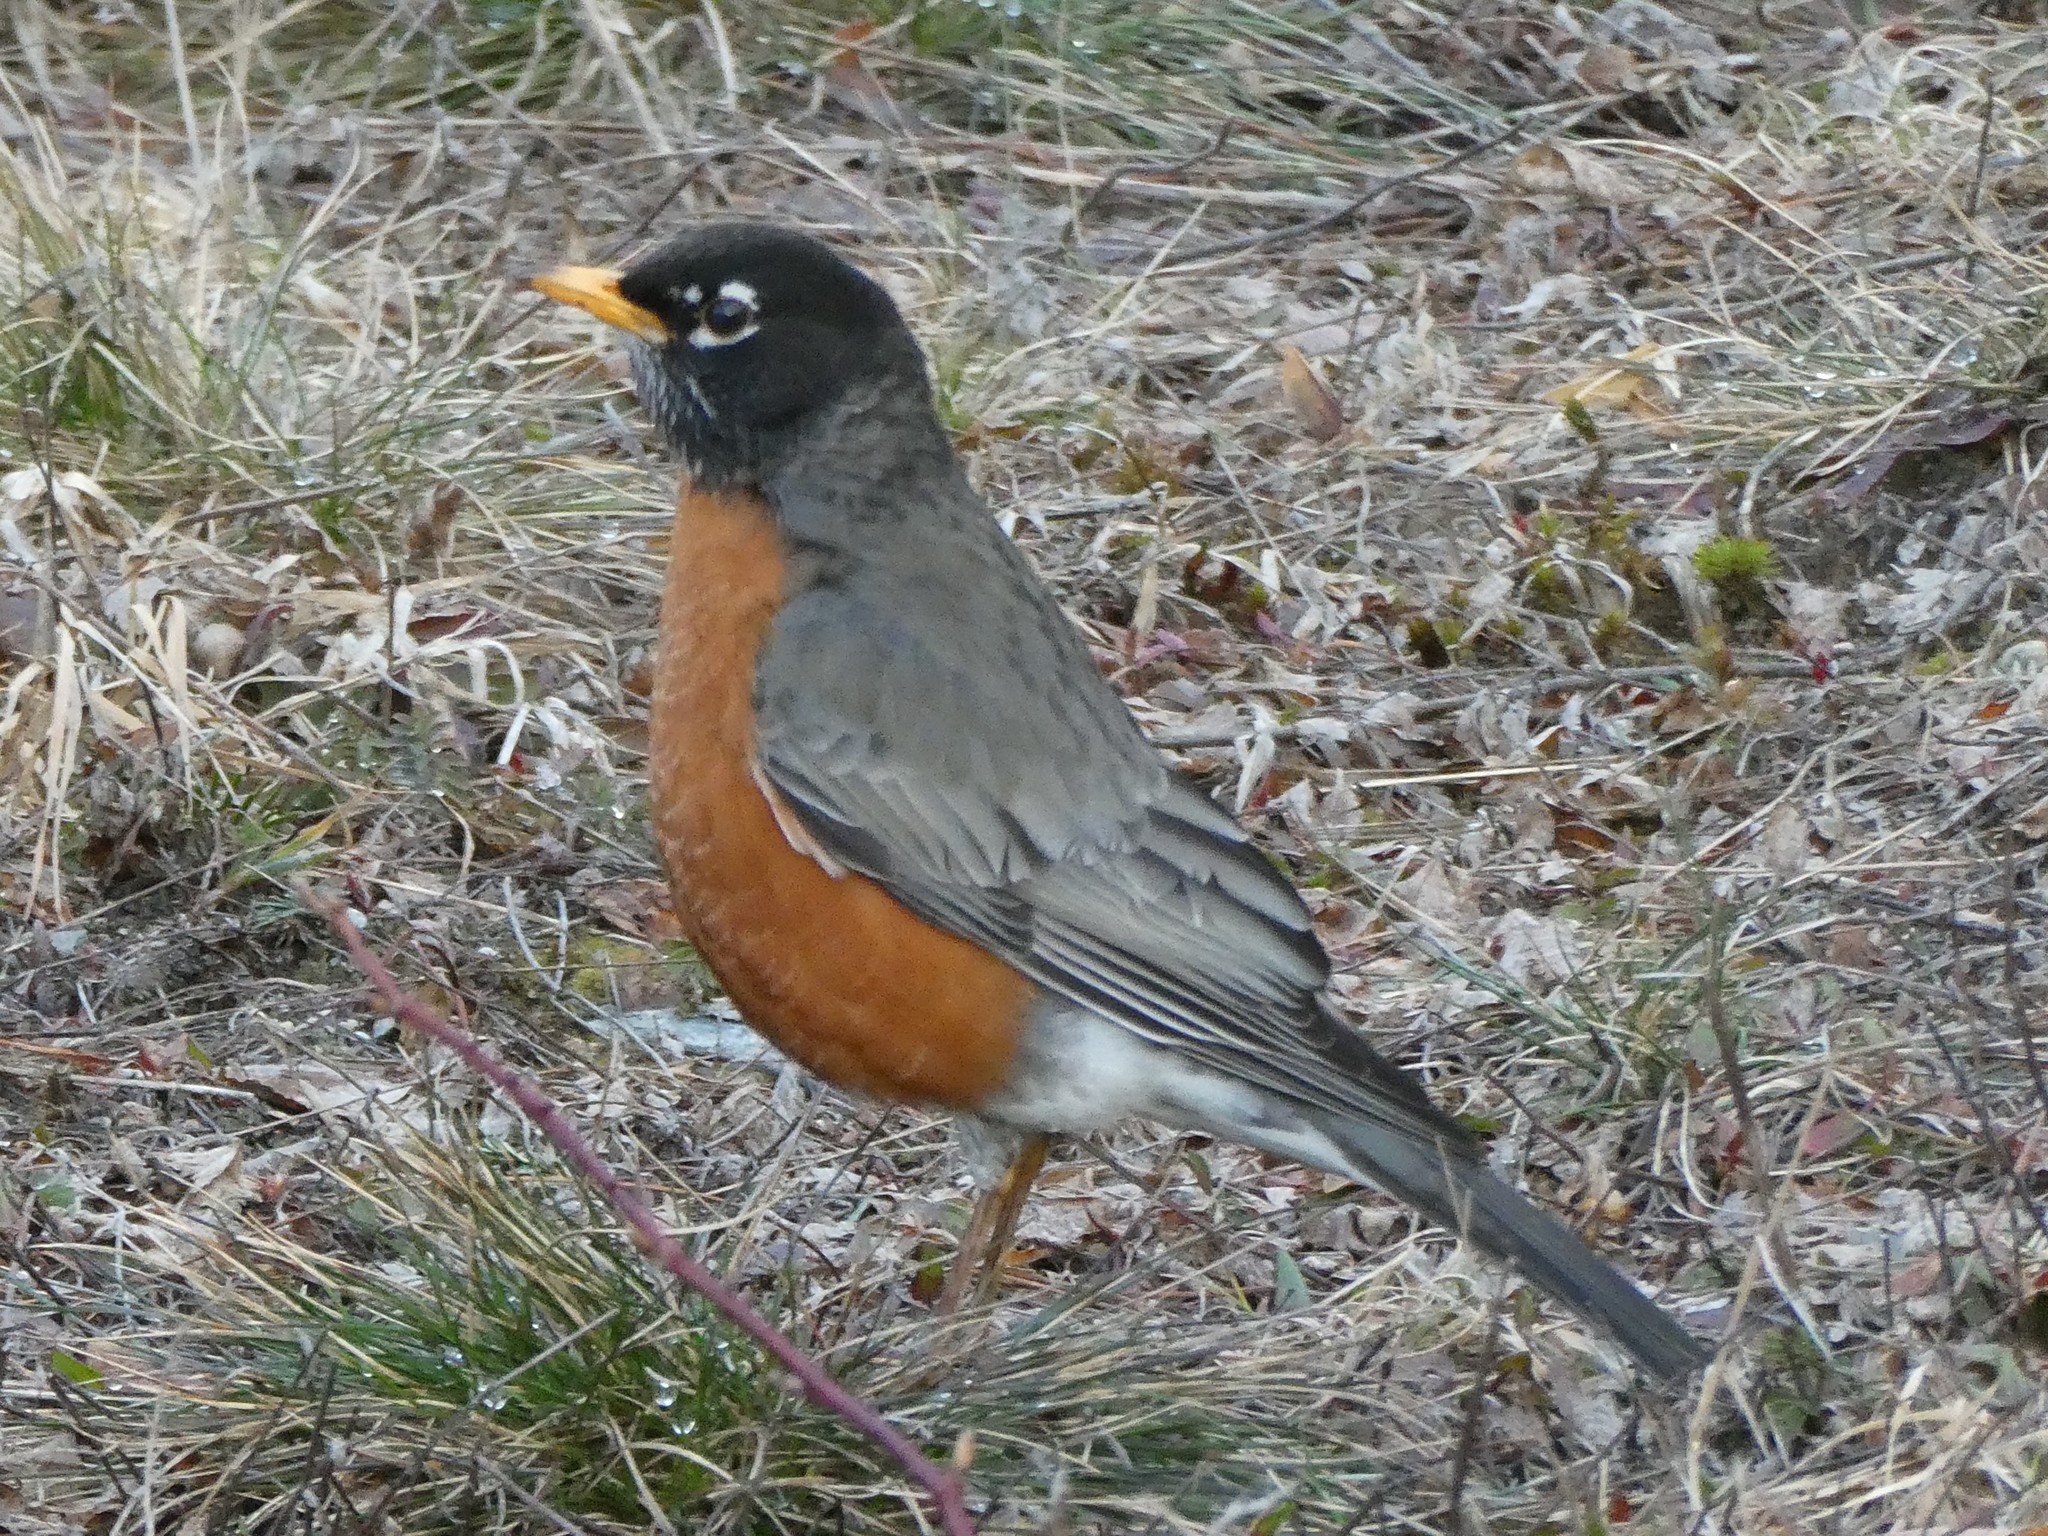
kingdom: Animalia
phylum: Chordata
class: Aves
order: Passeriformes
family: Turdidae
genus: Turdus
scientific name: Turdus migratorius
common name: American robin
